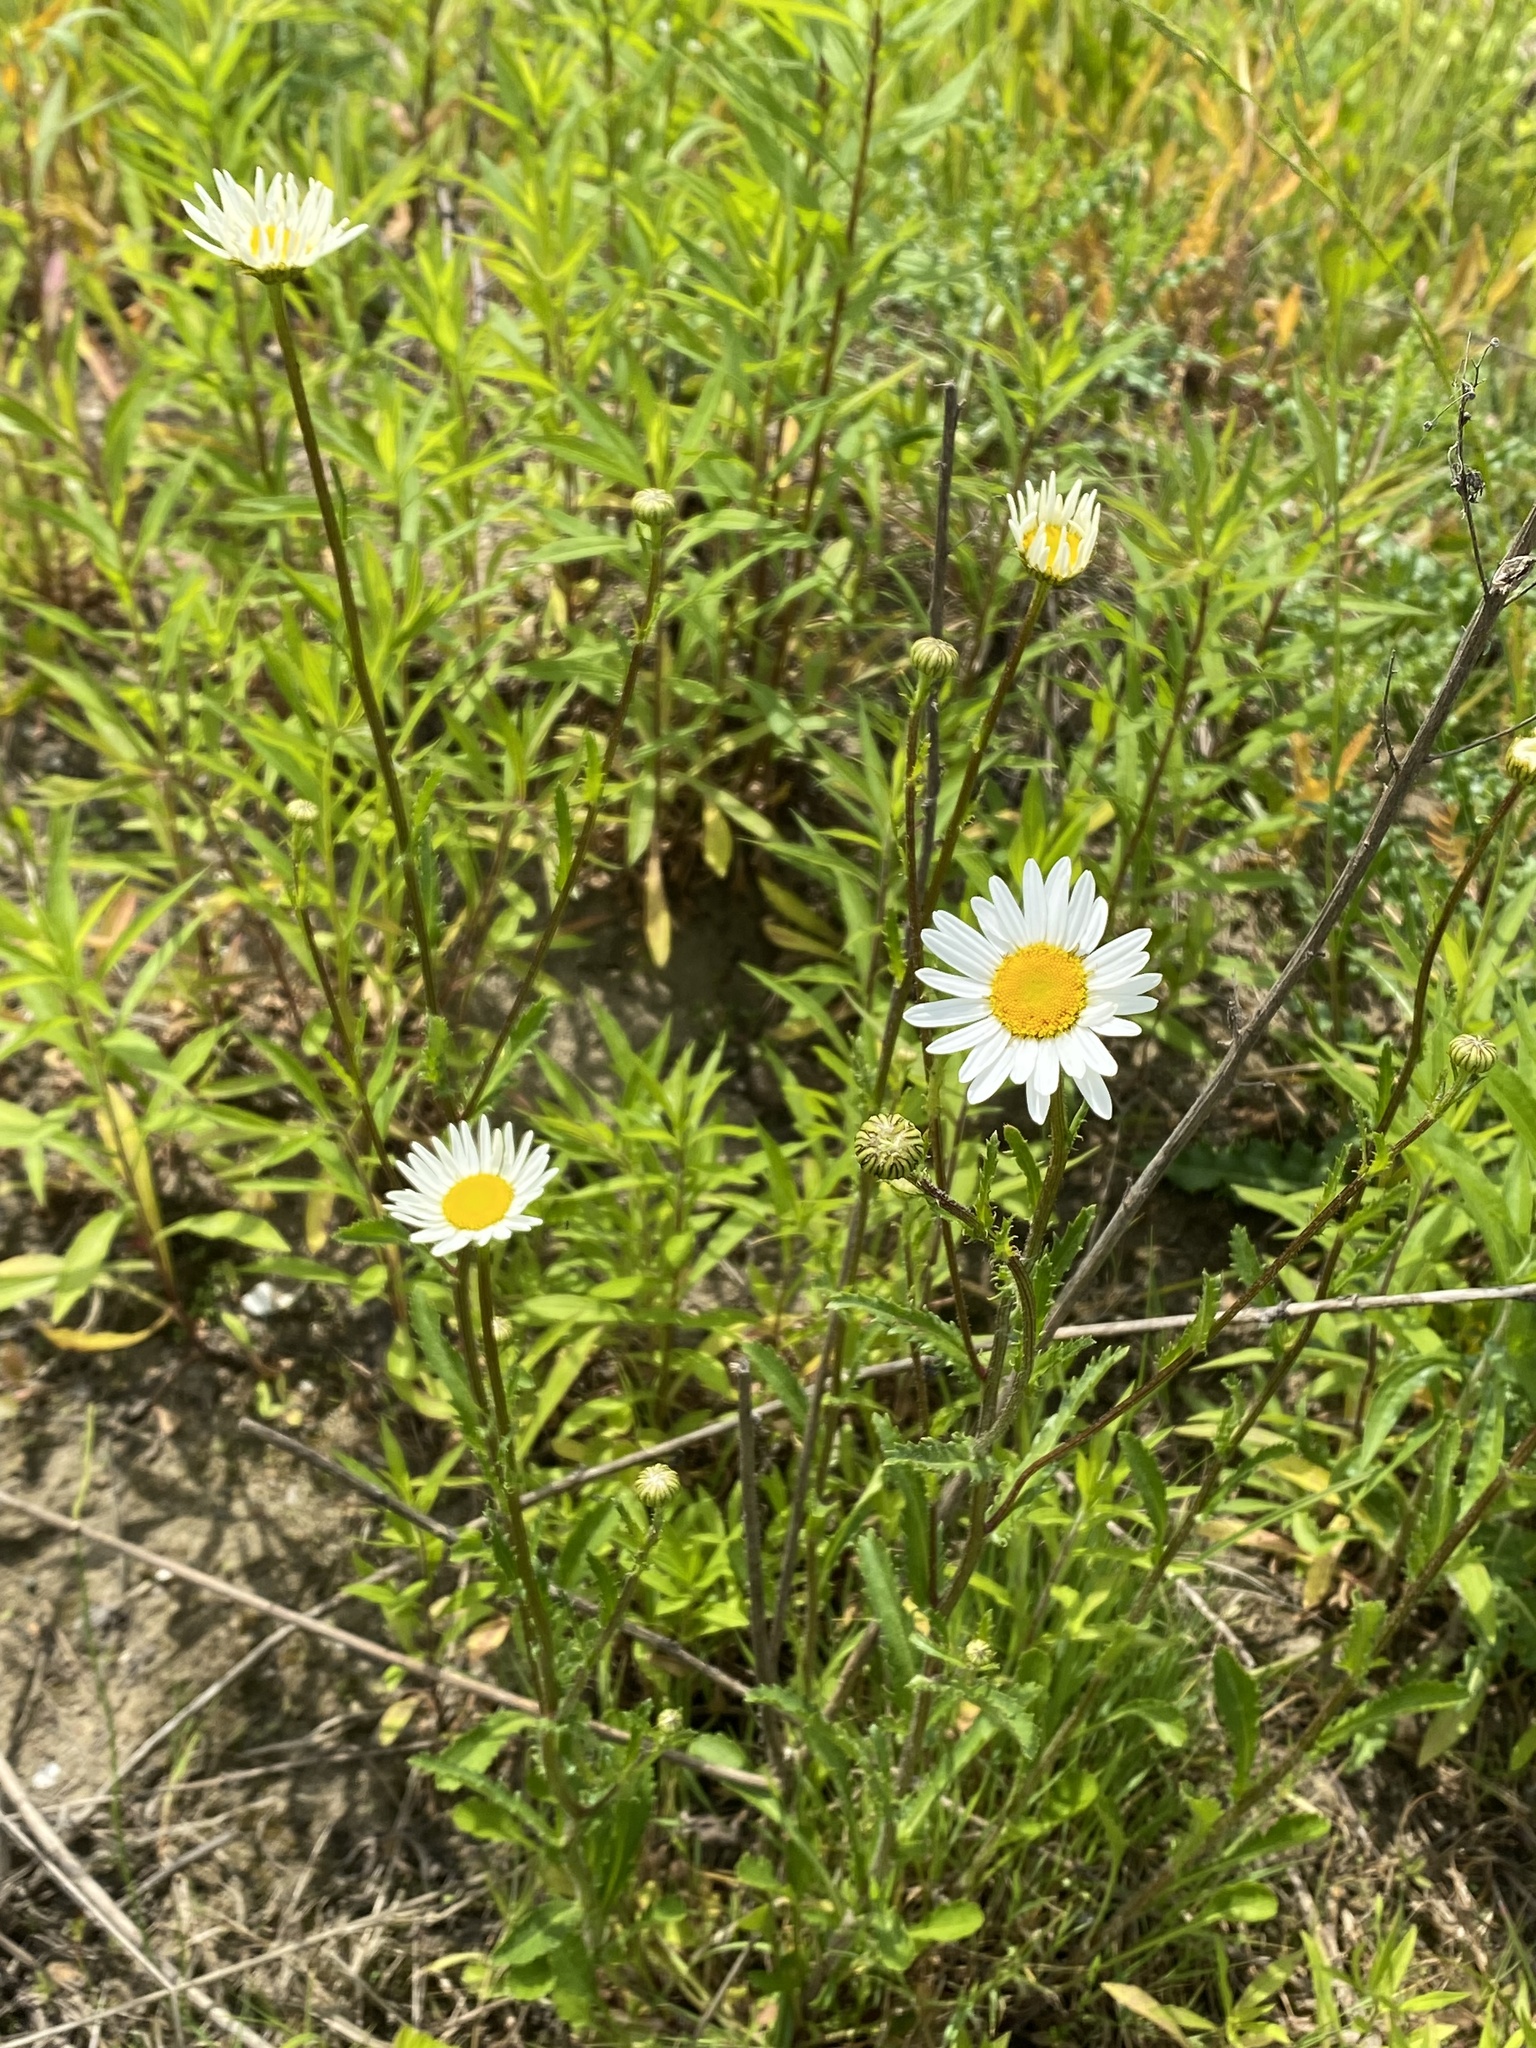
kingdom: Plantae
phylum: Tracheophyta
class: Magnoliopsida
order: Asterales
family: Asteraceae
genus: Leucanthemum
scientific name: Leucanthemum vulgare
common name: Oxeye daisy
